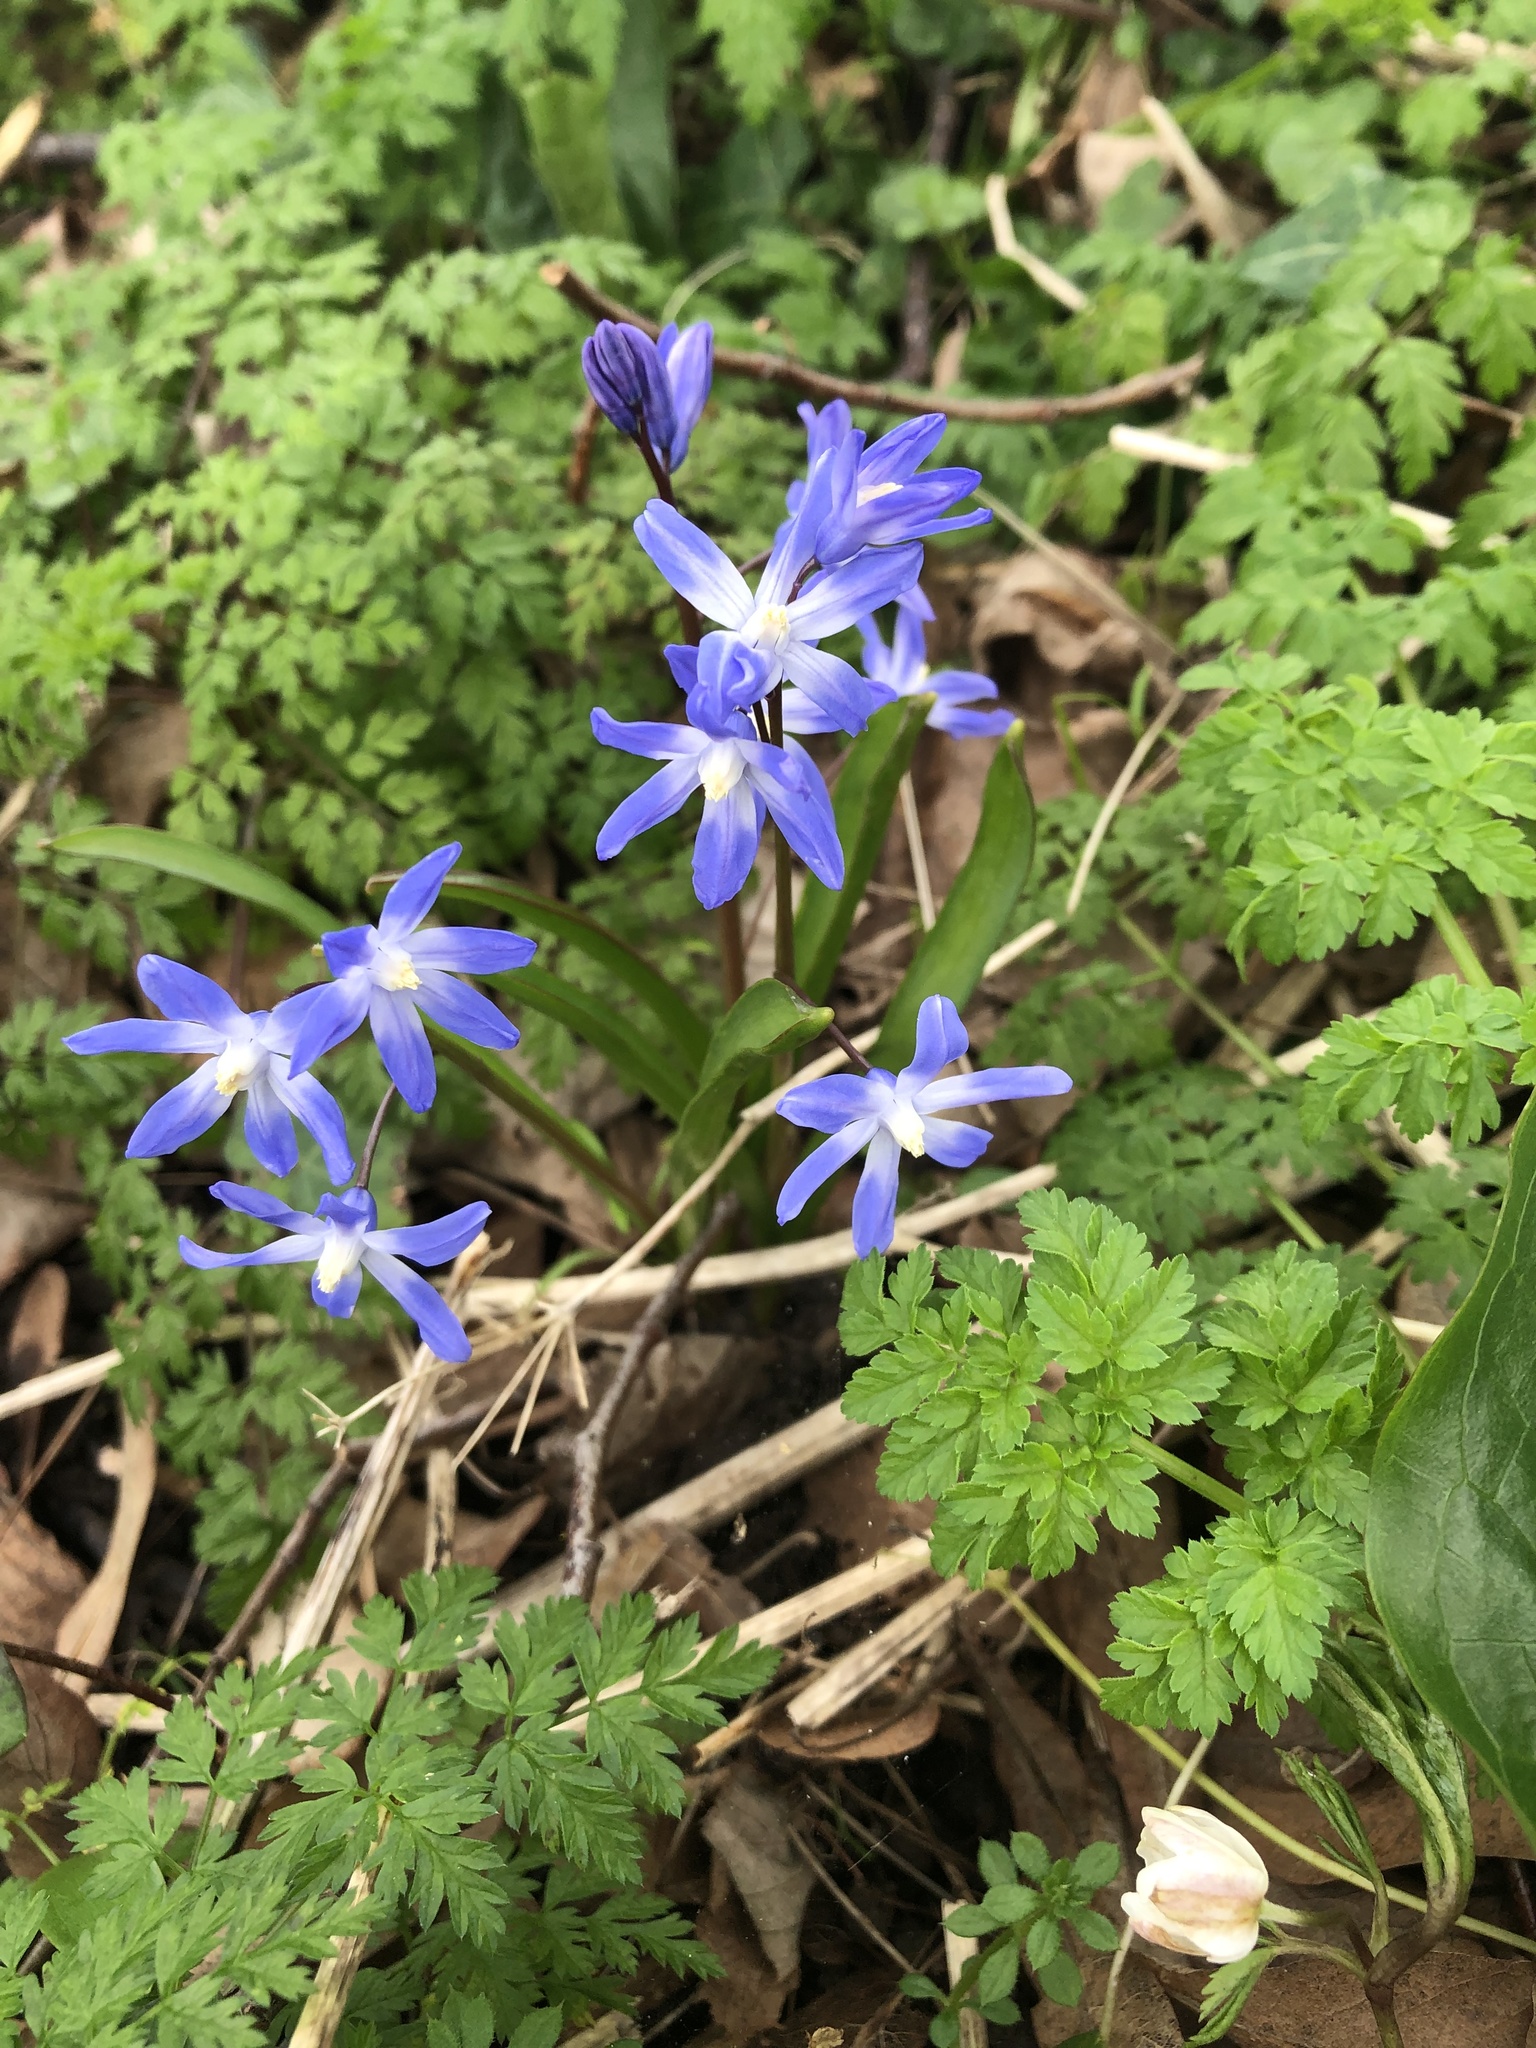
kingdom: Plantae
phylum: Tracheophyta
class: Liliopsida
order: Asparagales
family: Asparagaceae
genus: Scilla
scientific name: Scilla forbesii
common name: Glory-of-the-snow
